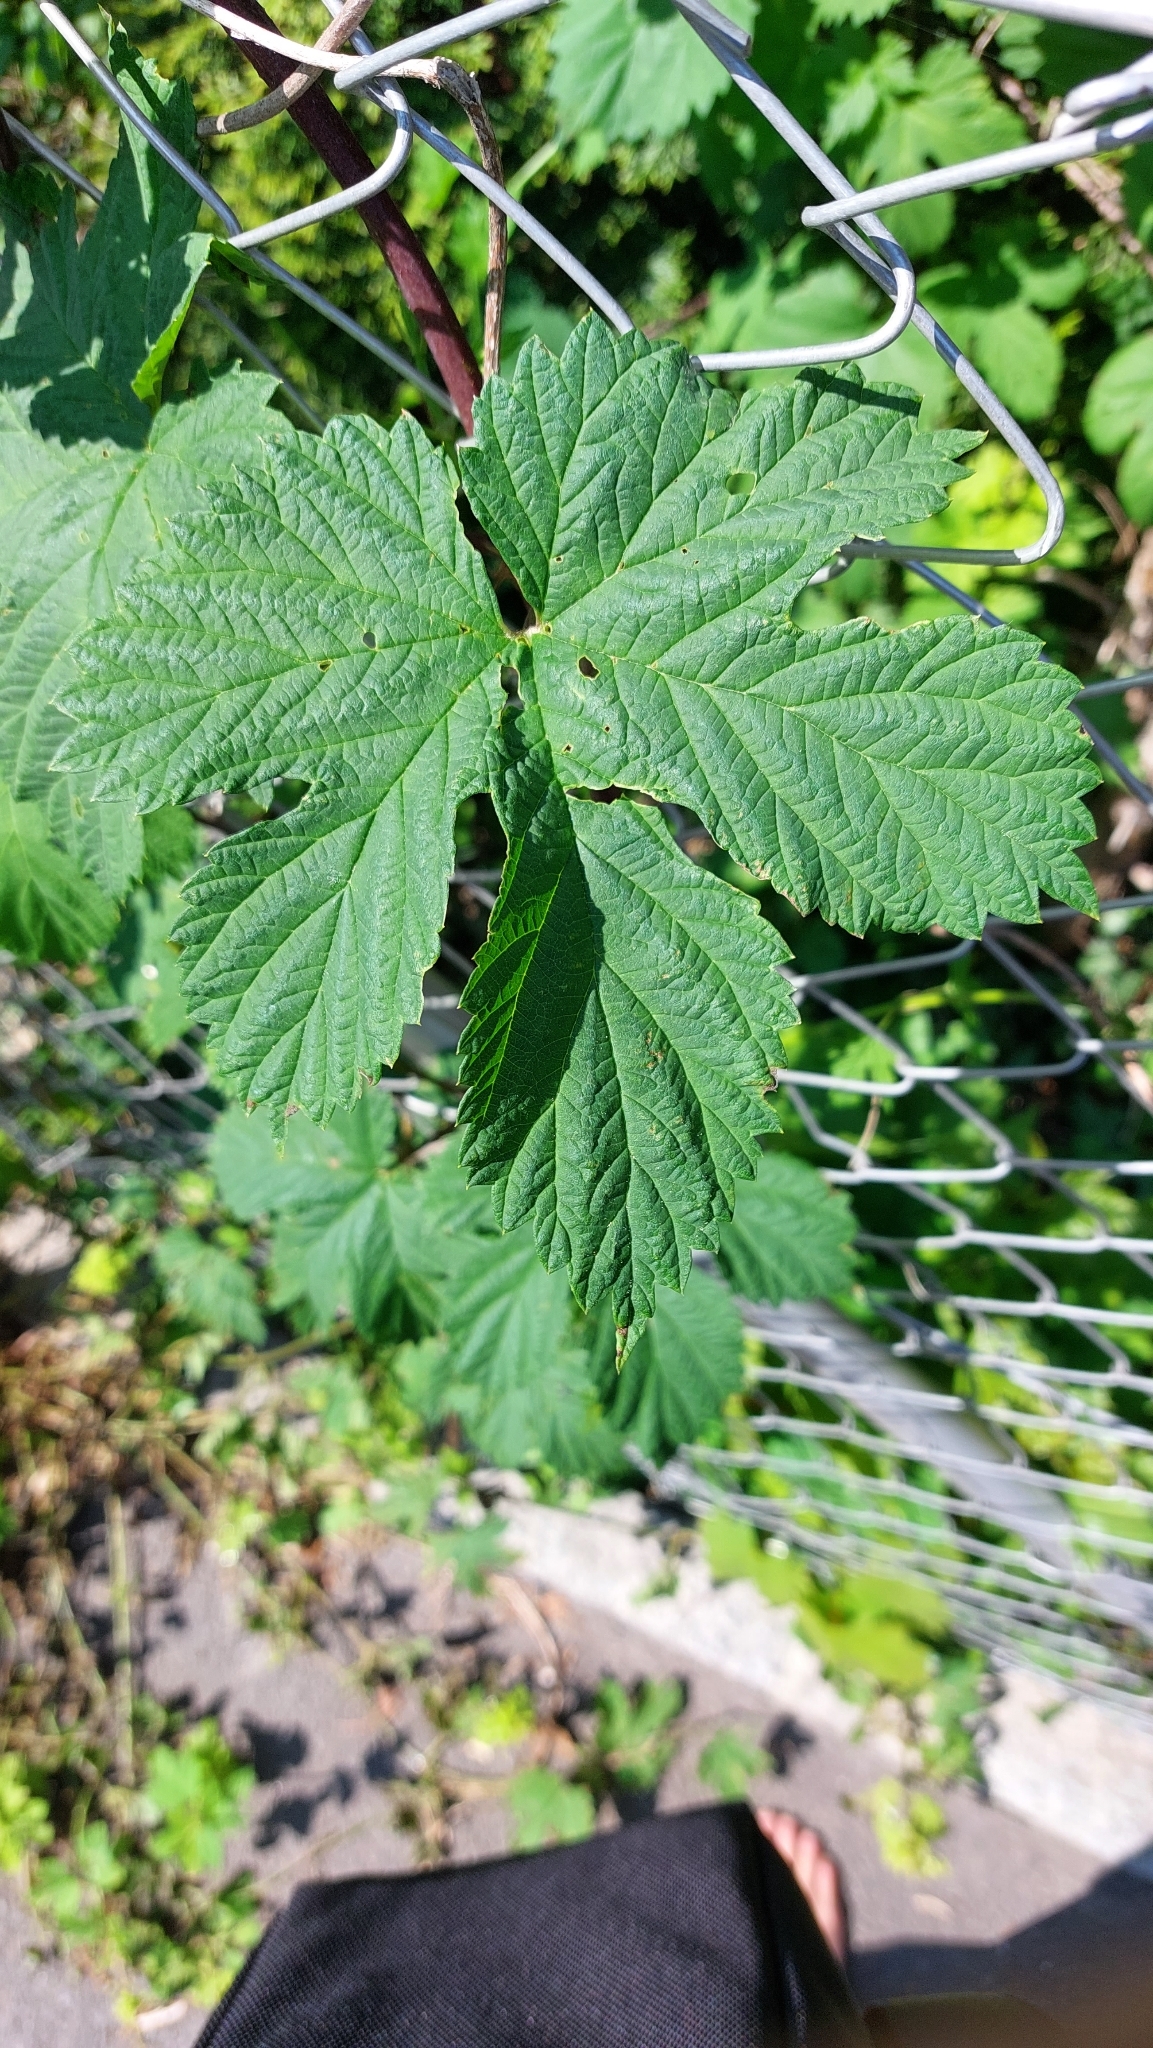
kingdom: Plantae
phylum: Tracheophyta
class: Magnoliopsida
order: Rosales
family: Cannabaceae
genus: Humulus
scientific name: Humulus lupulus
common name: Hop
